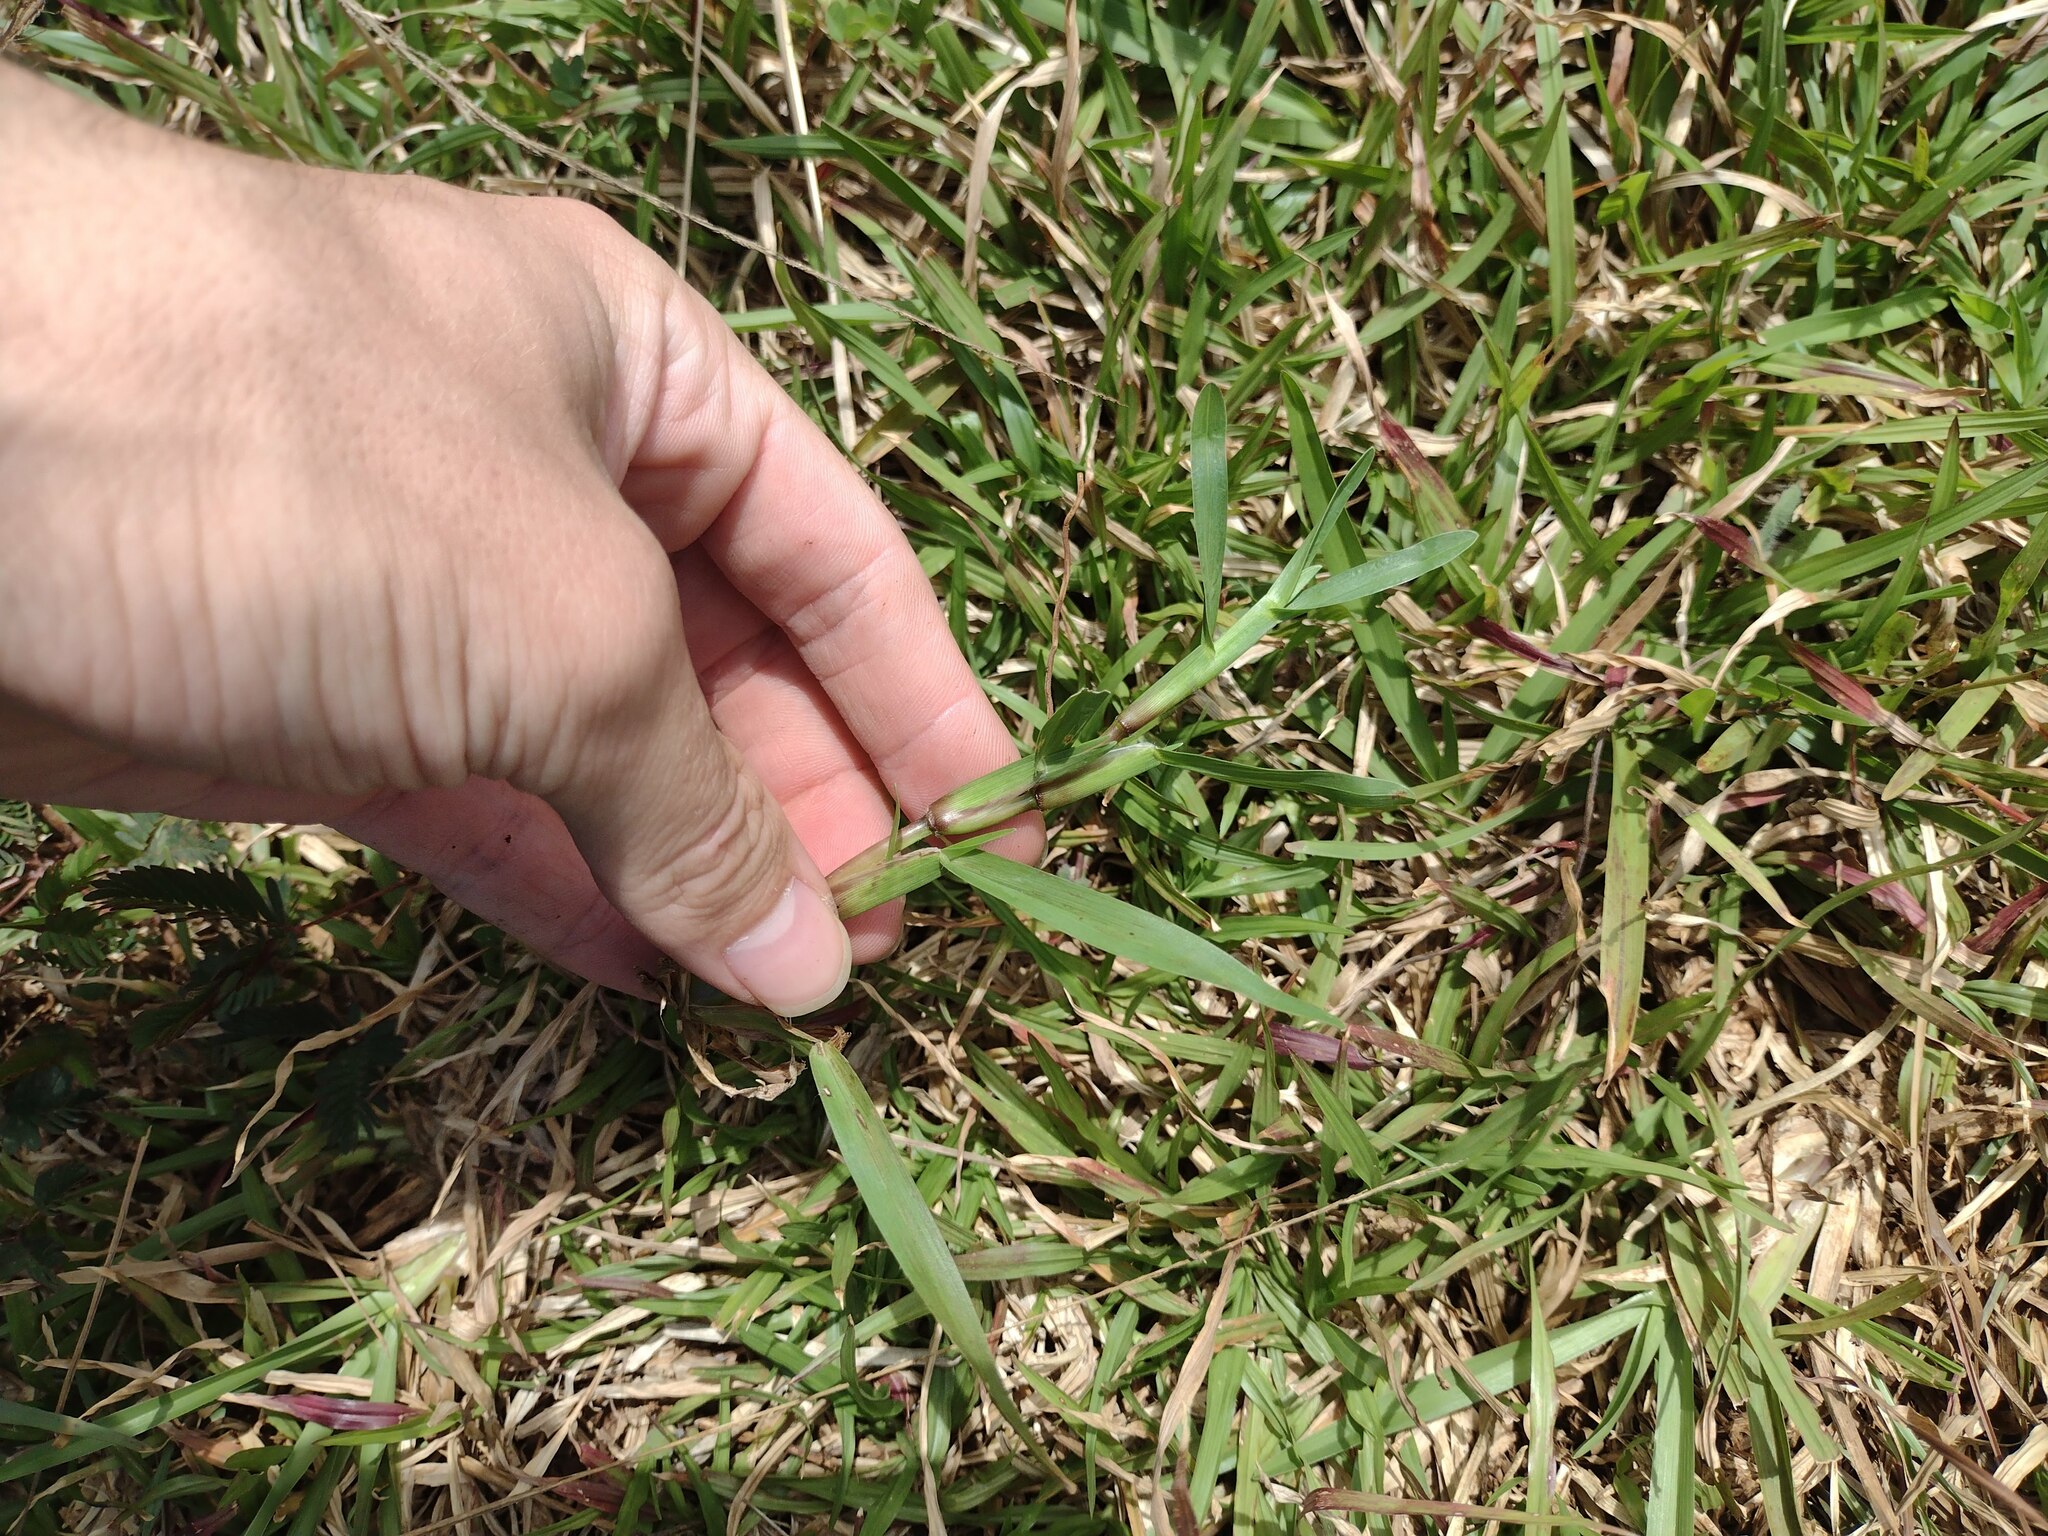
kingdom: Plantae
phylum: Tracheophyta
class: Liliopsida
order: Poales
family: Poaceae
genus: Axonopus
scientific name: Axonopus fissifolius
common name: Common carpetgrass
